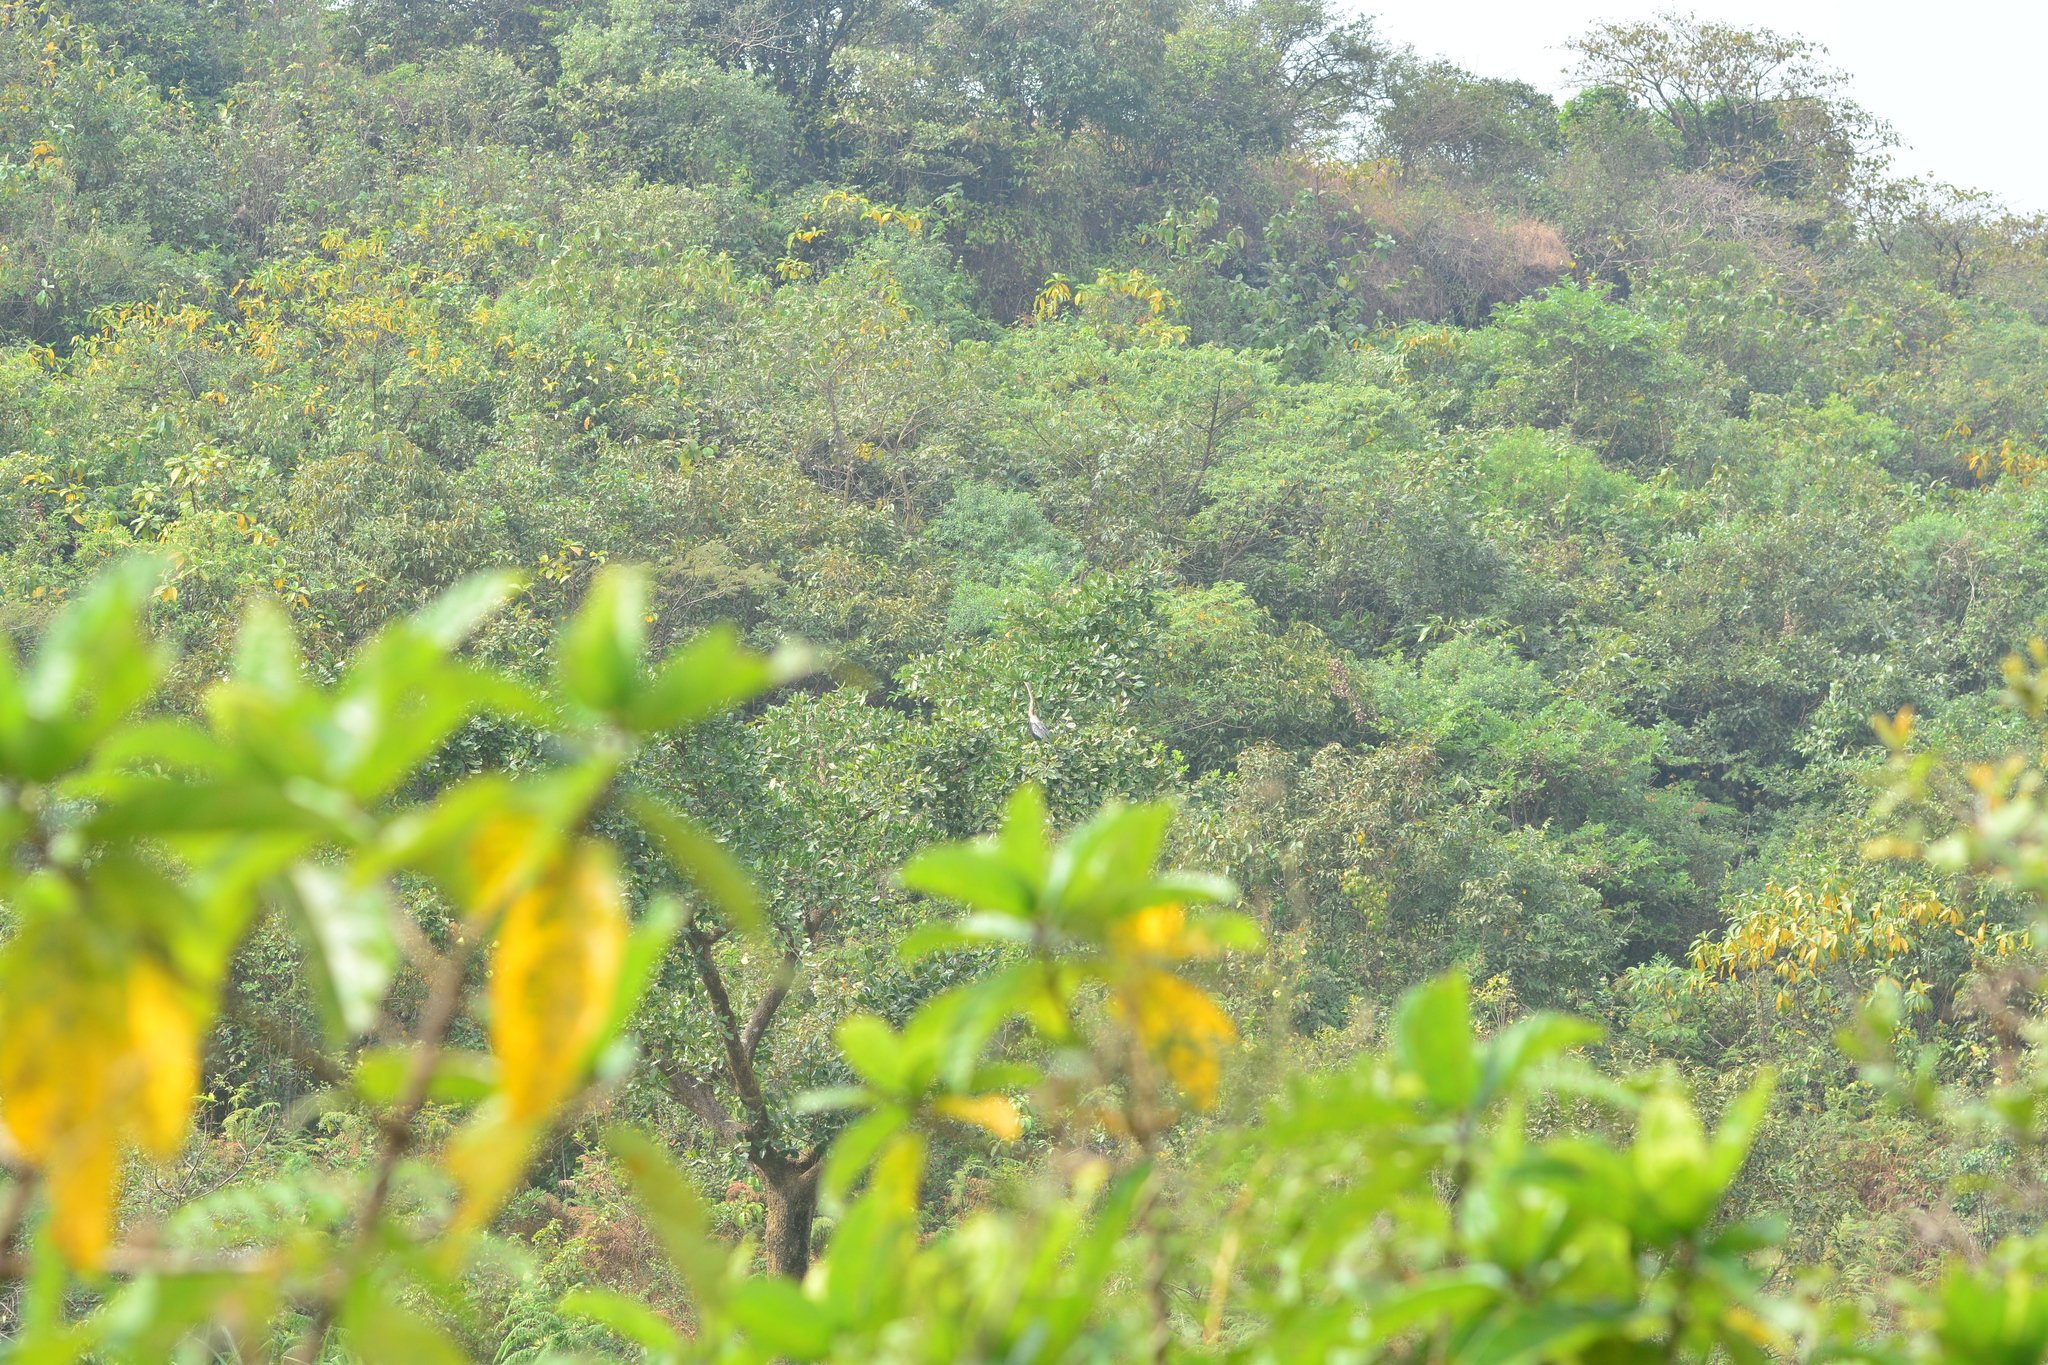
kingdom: Animalia
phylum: Chordata
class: Aves
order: Suliformes
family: Anhingidae
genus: Anhinga
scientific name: Anhinga melanogaster
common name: Oriental darter
